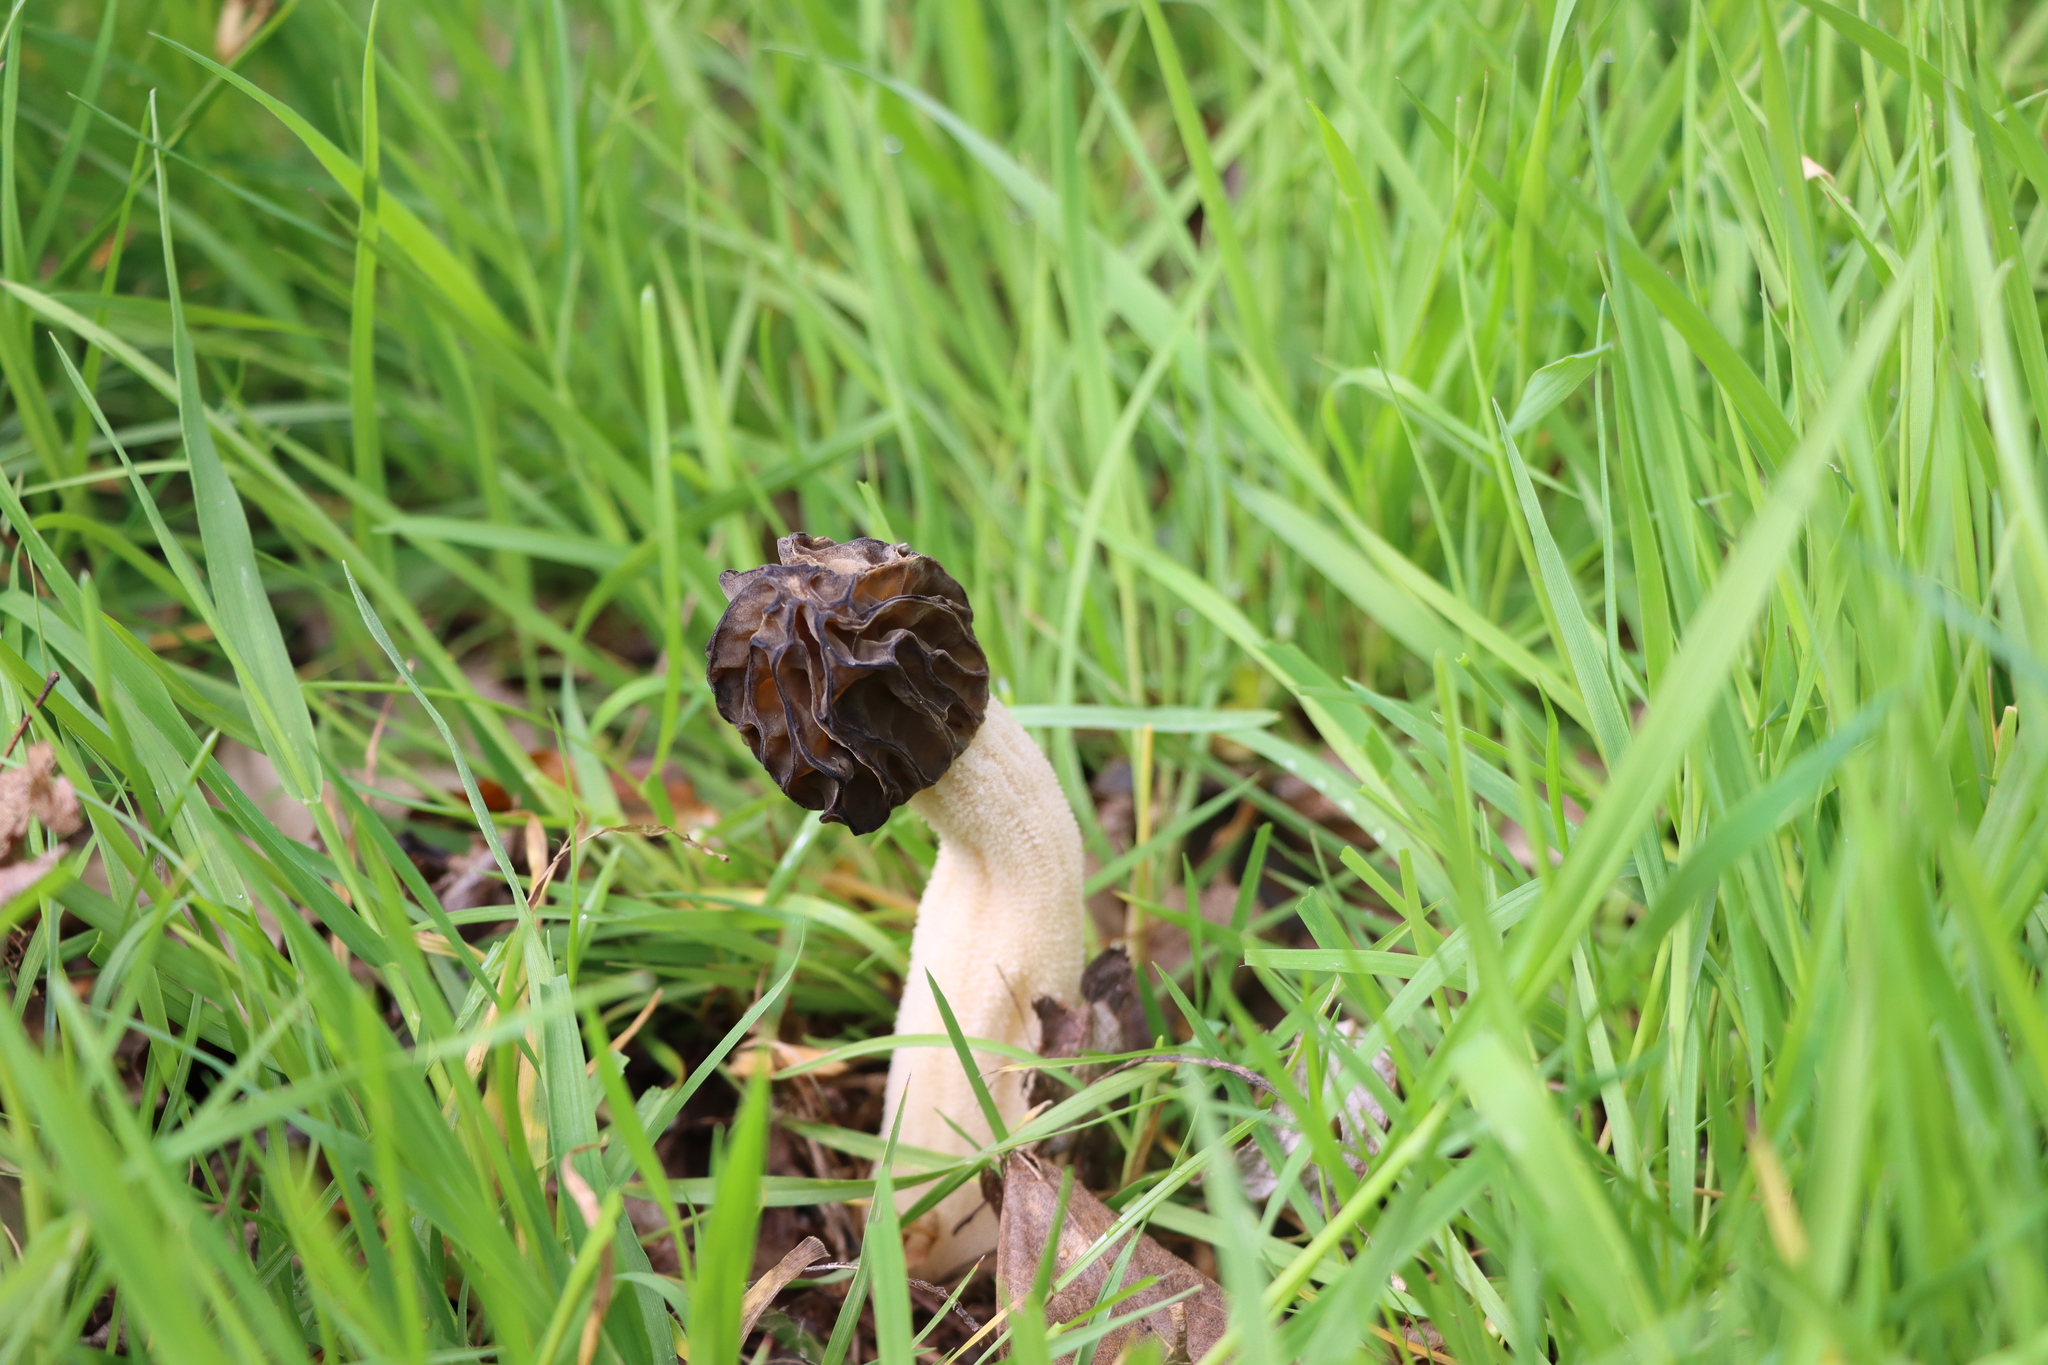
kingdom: Fungi
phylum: Ascomycota
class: Pezizomycetes
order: Pezizales
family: Morchellaceae
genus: Morchella
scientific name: Morchella semilibera
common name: Semifree morel
